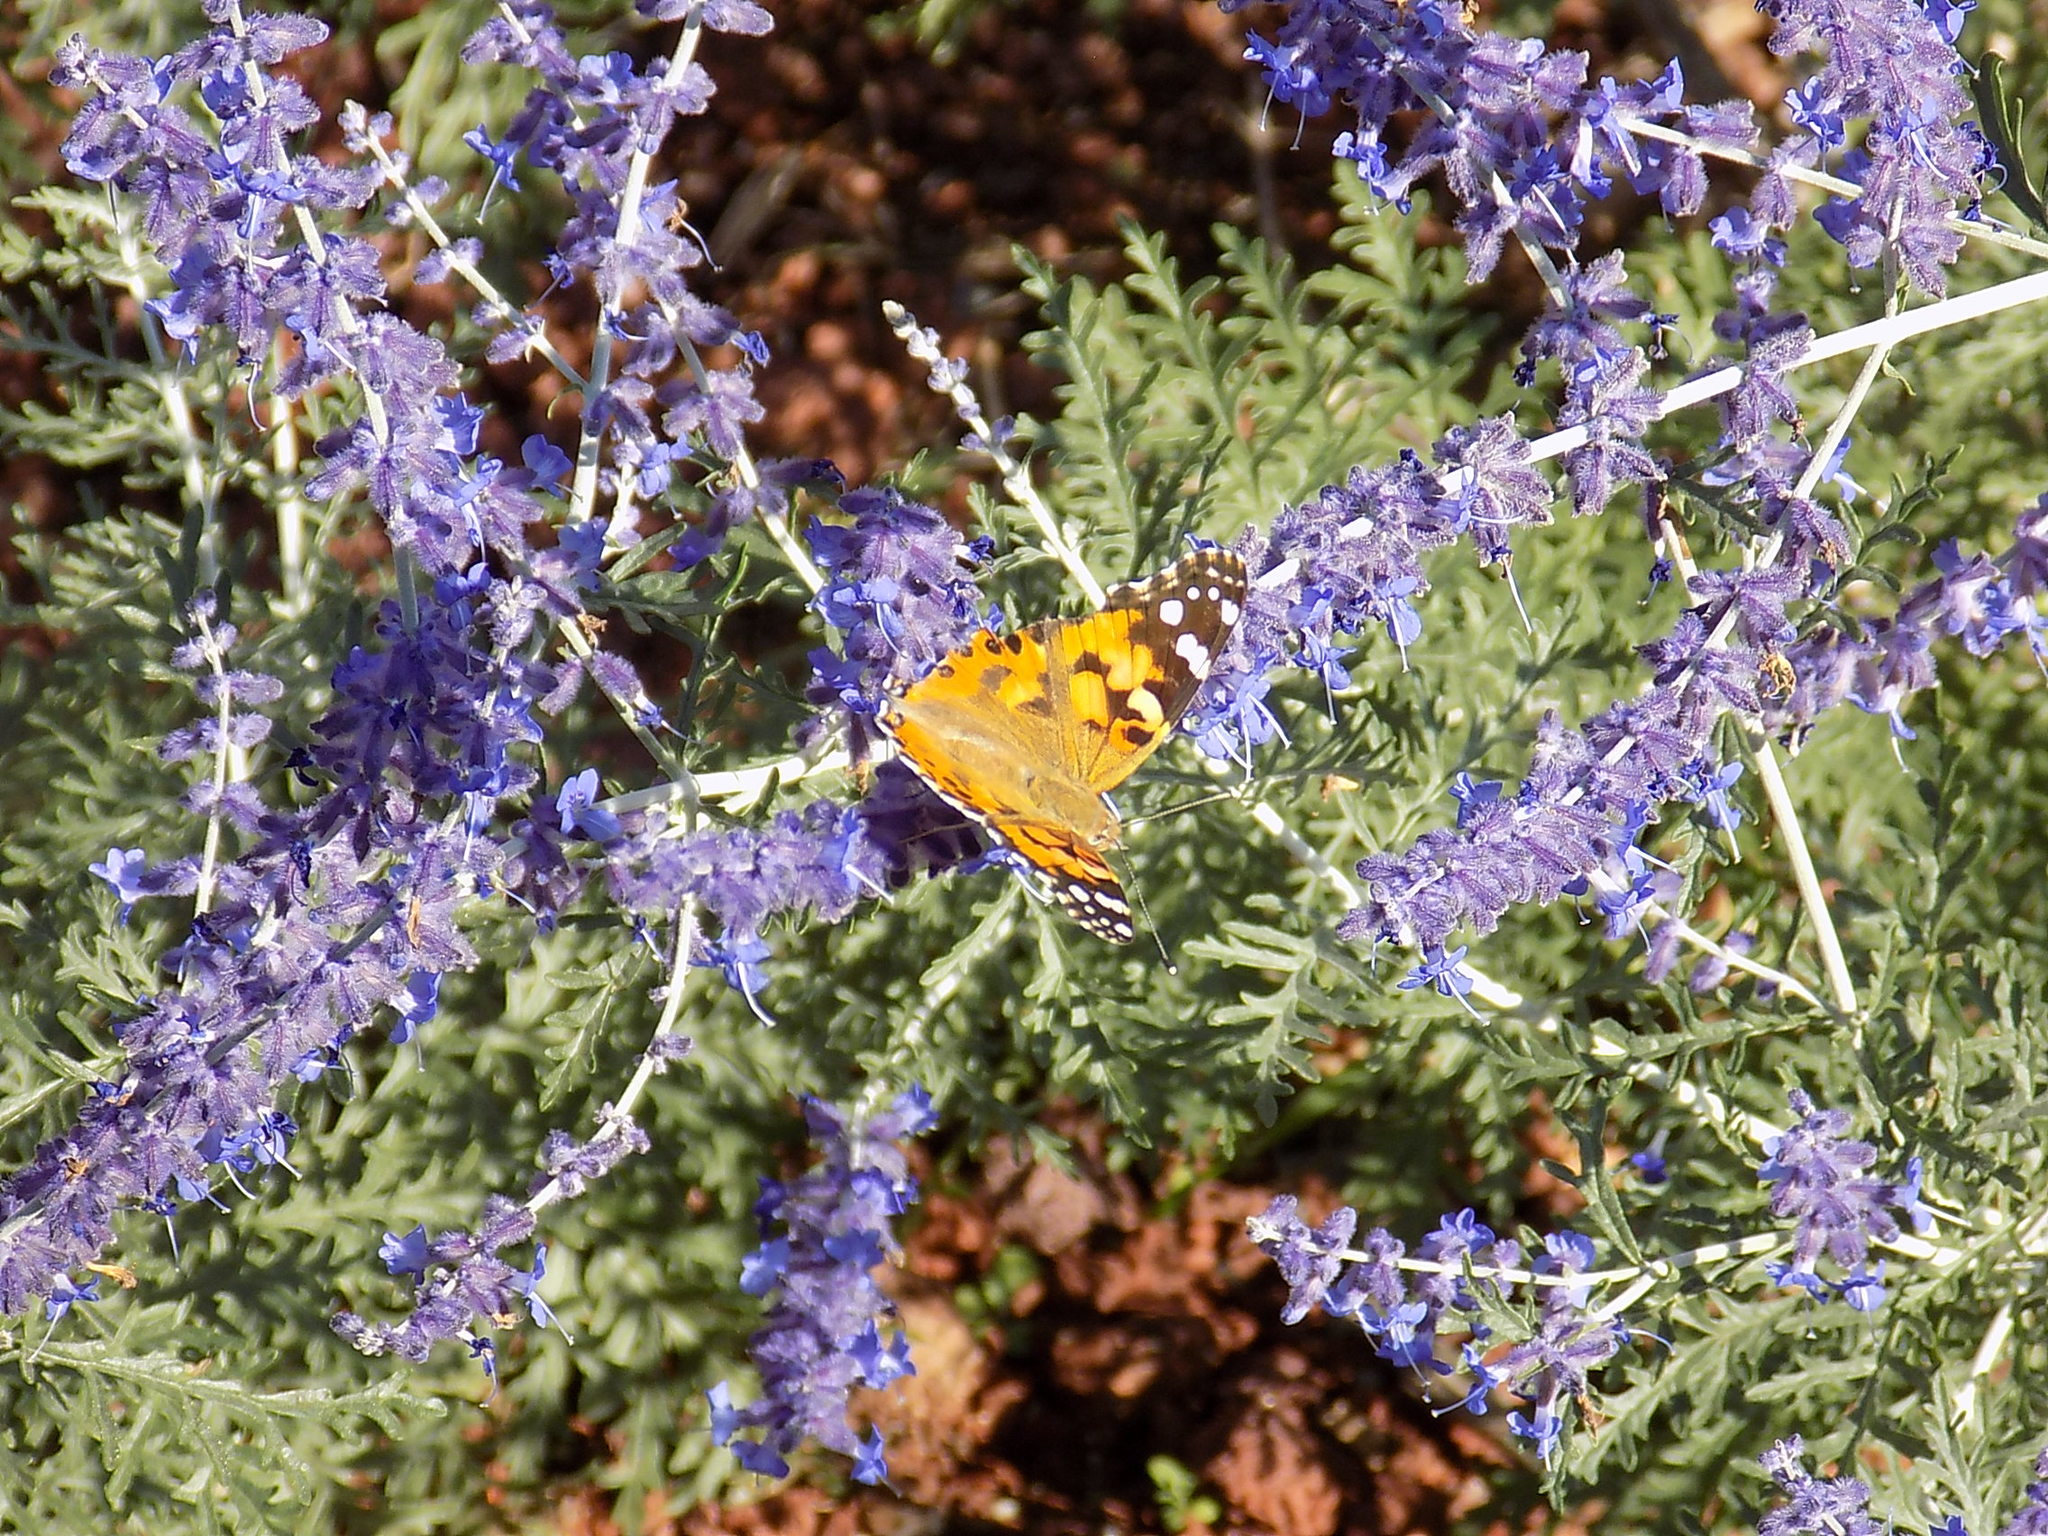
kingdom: Animalia
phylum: Arthropoda
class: Insecta
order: Lepidoptera
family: Nymphalidae
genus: Vanessa
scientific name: Vanessa cardui
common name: Painted lady
